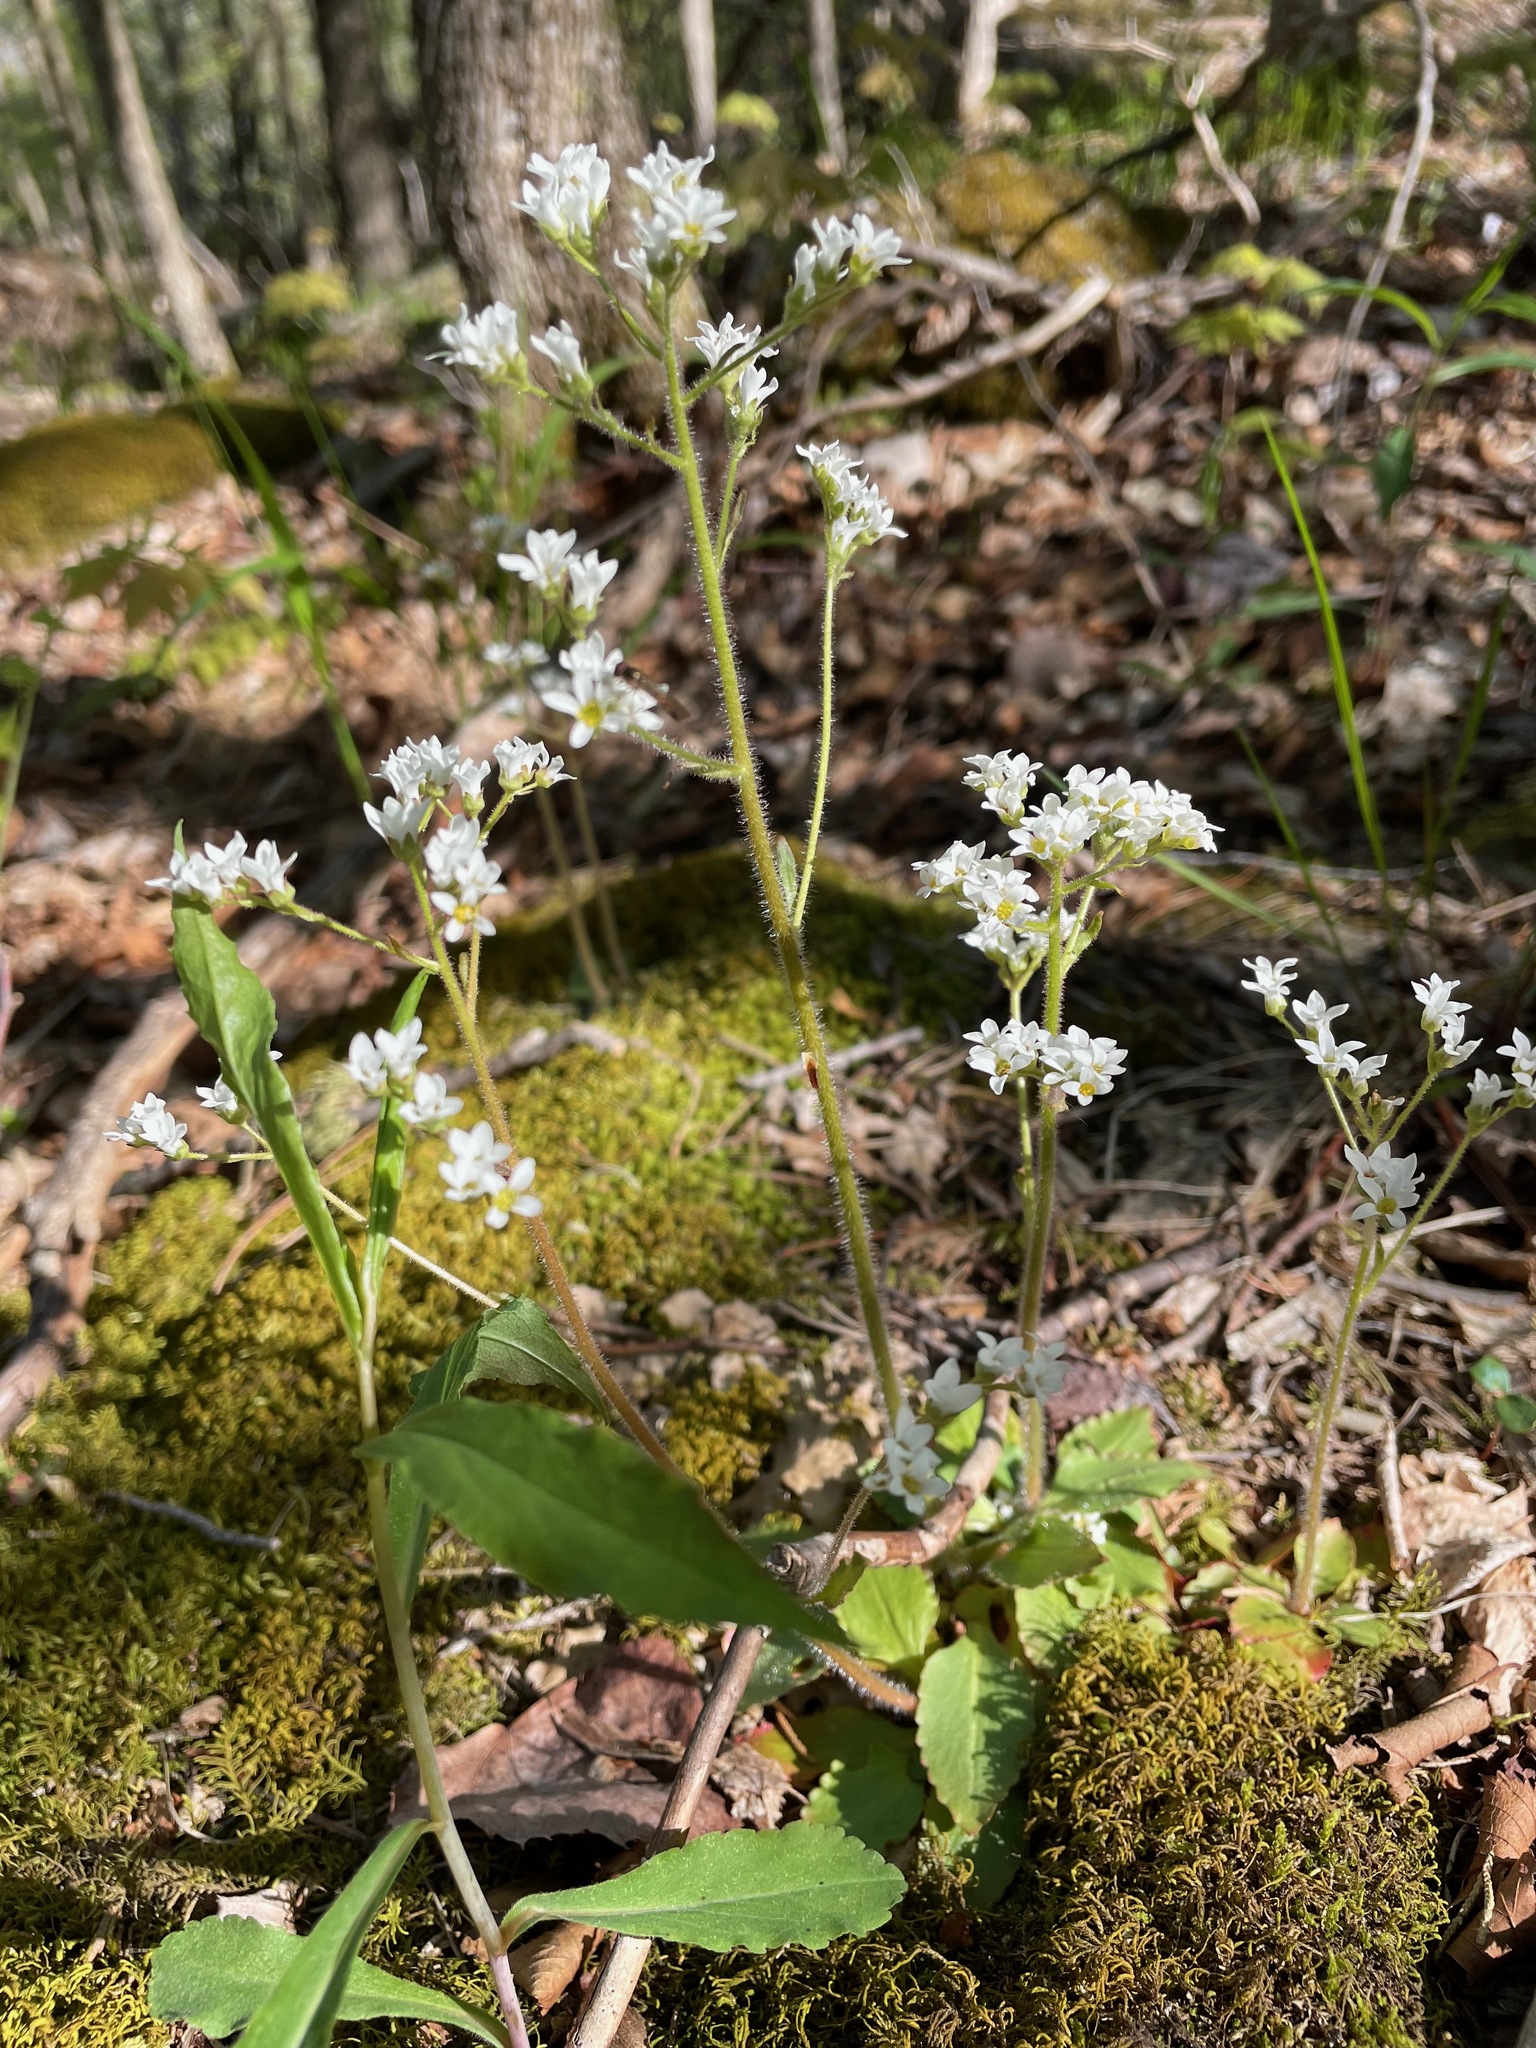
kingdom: Plantae
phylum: Tracheophyta
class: Magnoliopsida
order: Saxifragales
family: Saxifragaceae
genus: Micranthes
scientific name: Micranthes virginiensis
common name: Early saxifrage
